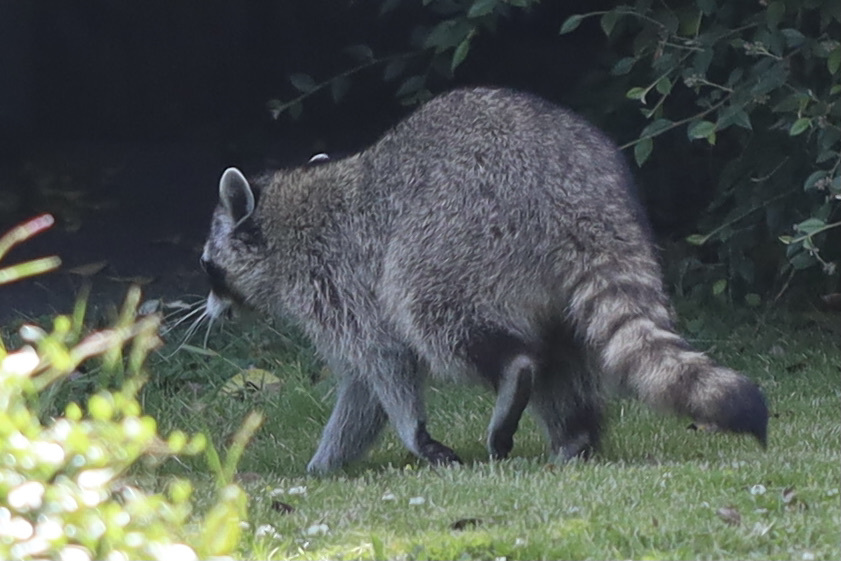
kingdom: Animalia
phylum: Chordata
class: Mammalia
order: Carnivora
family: Procyonidae
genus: Procyon
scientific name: Procyon lotor
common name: Raccoon
